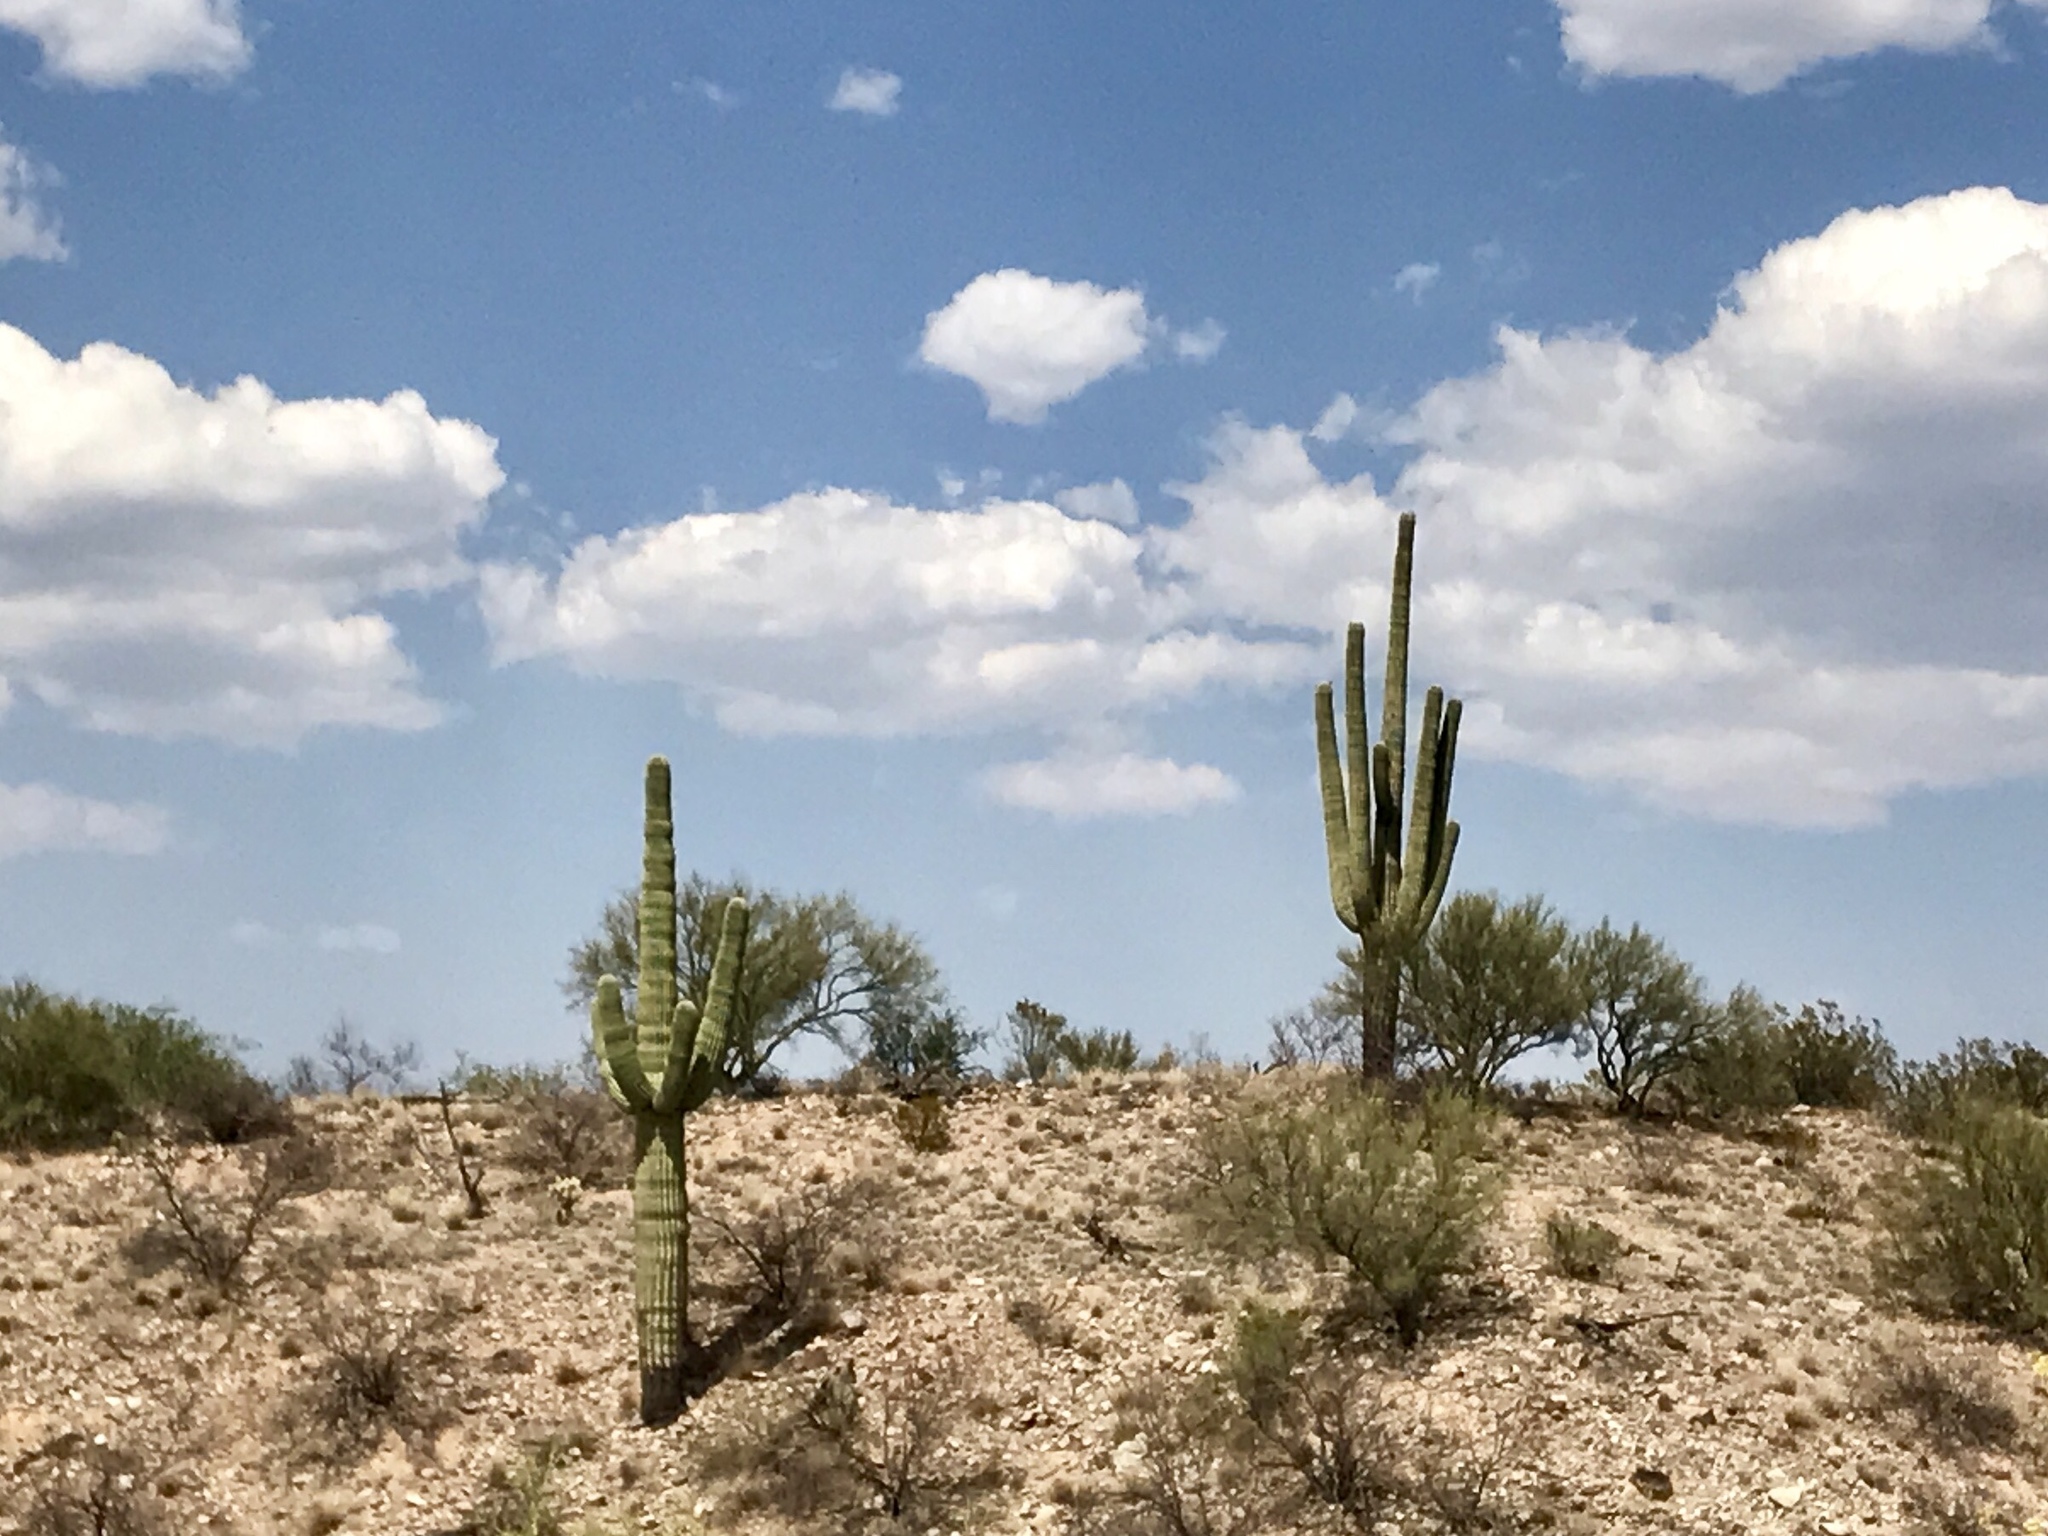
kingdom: Plantae
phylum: Tracheophyta
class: Magnoliopsida
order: Caryophyllales
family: Cactaceae
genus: Carnegiea
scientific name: Carnegiea gigantea
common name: Saguaro
